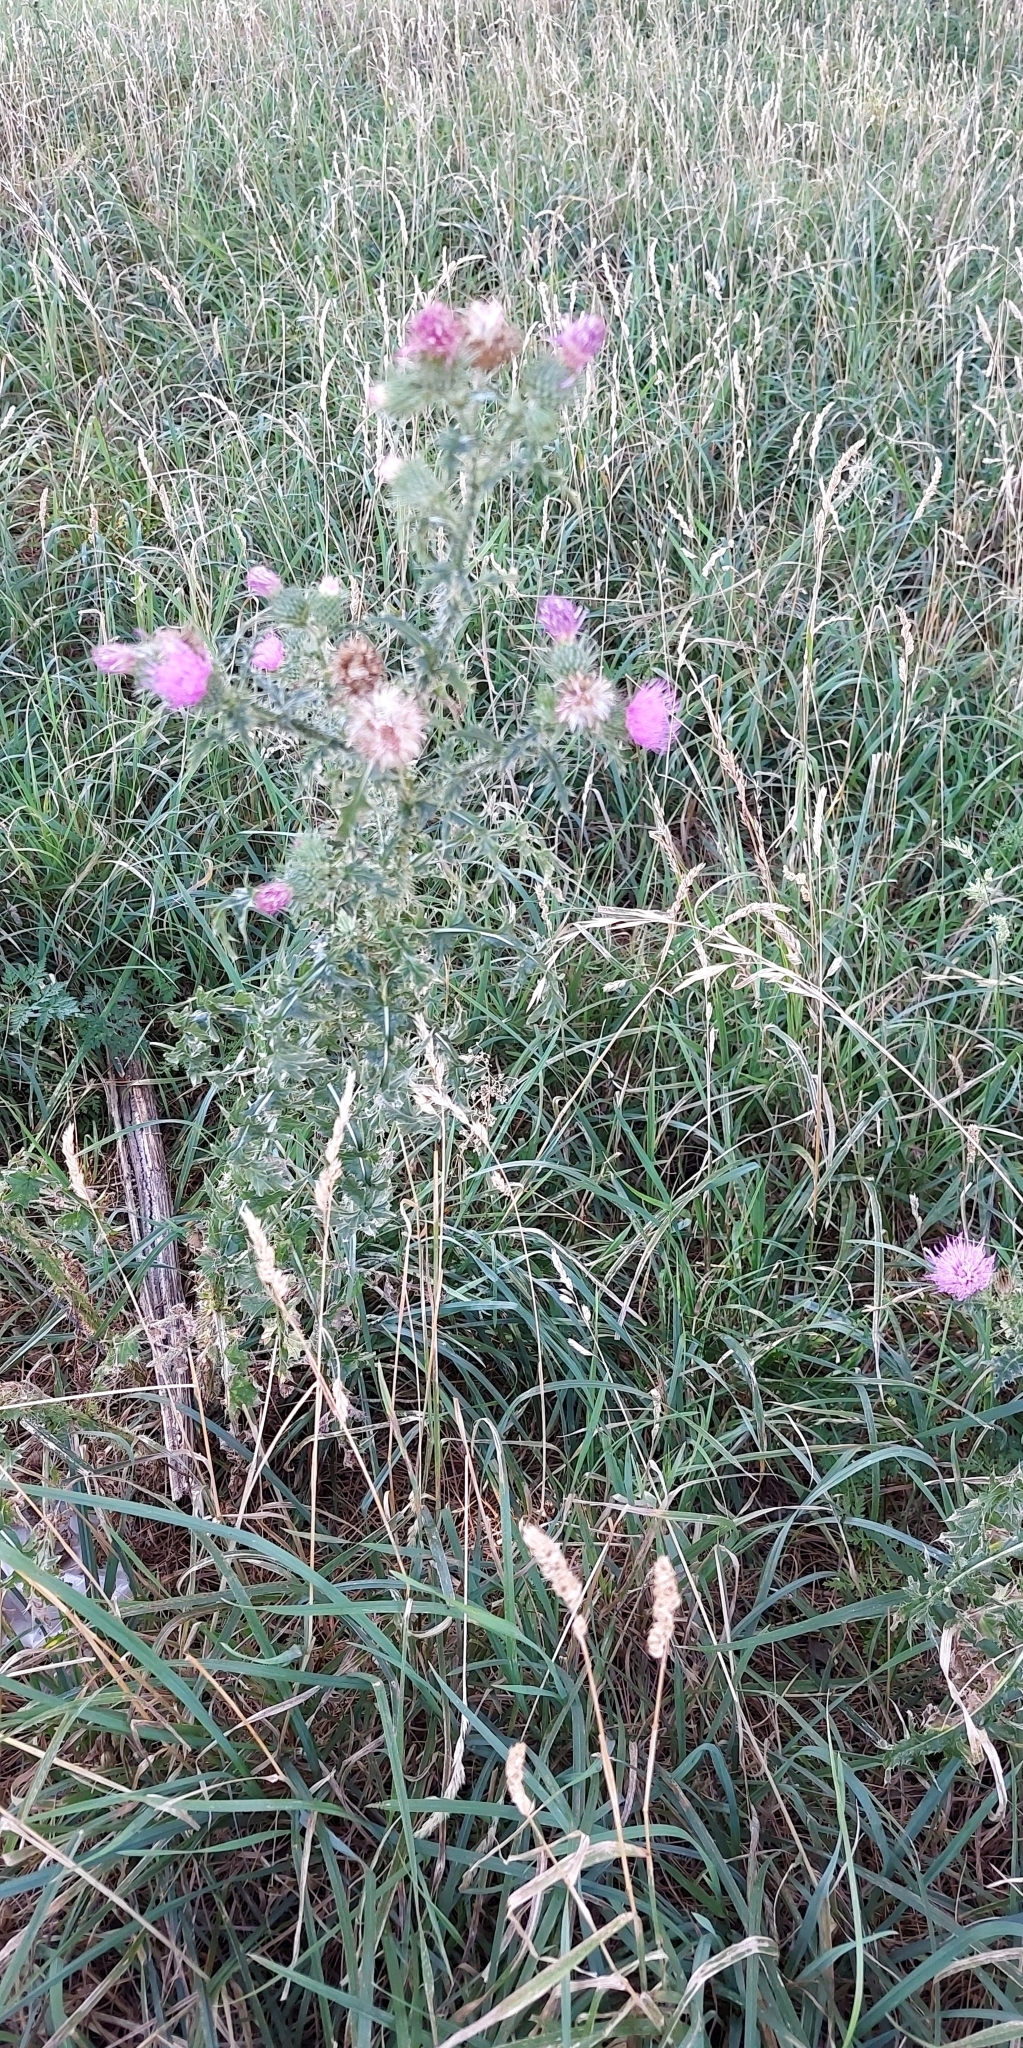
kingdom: Plantae
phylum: Tracheophyta
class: Magnoliopsida
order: Asterales
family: Asteraceae
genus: Carduus
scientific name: Carduus acanthoides
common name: Plumeless thistle
